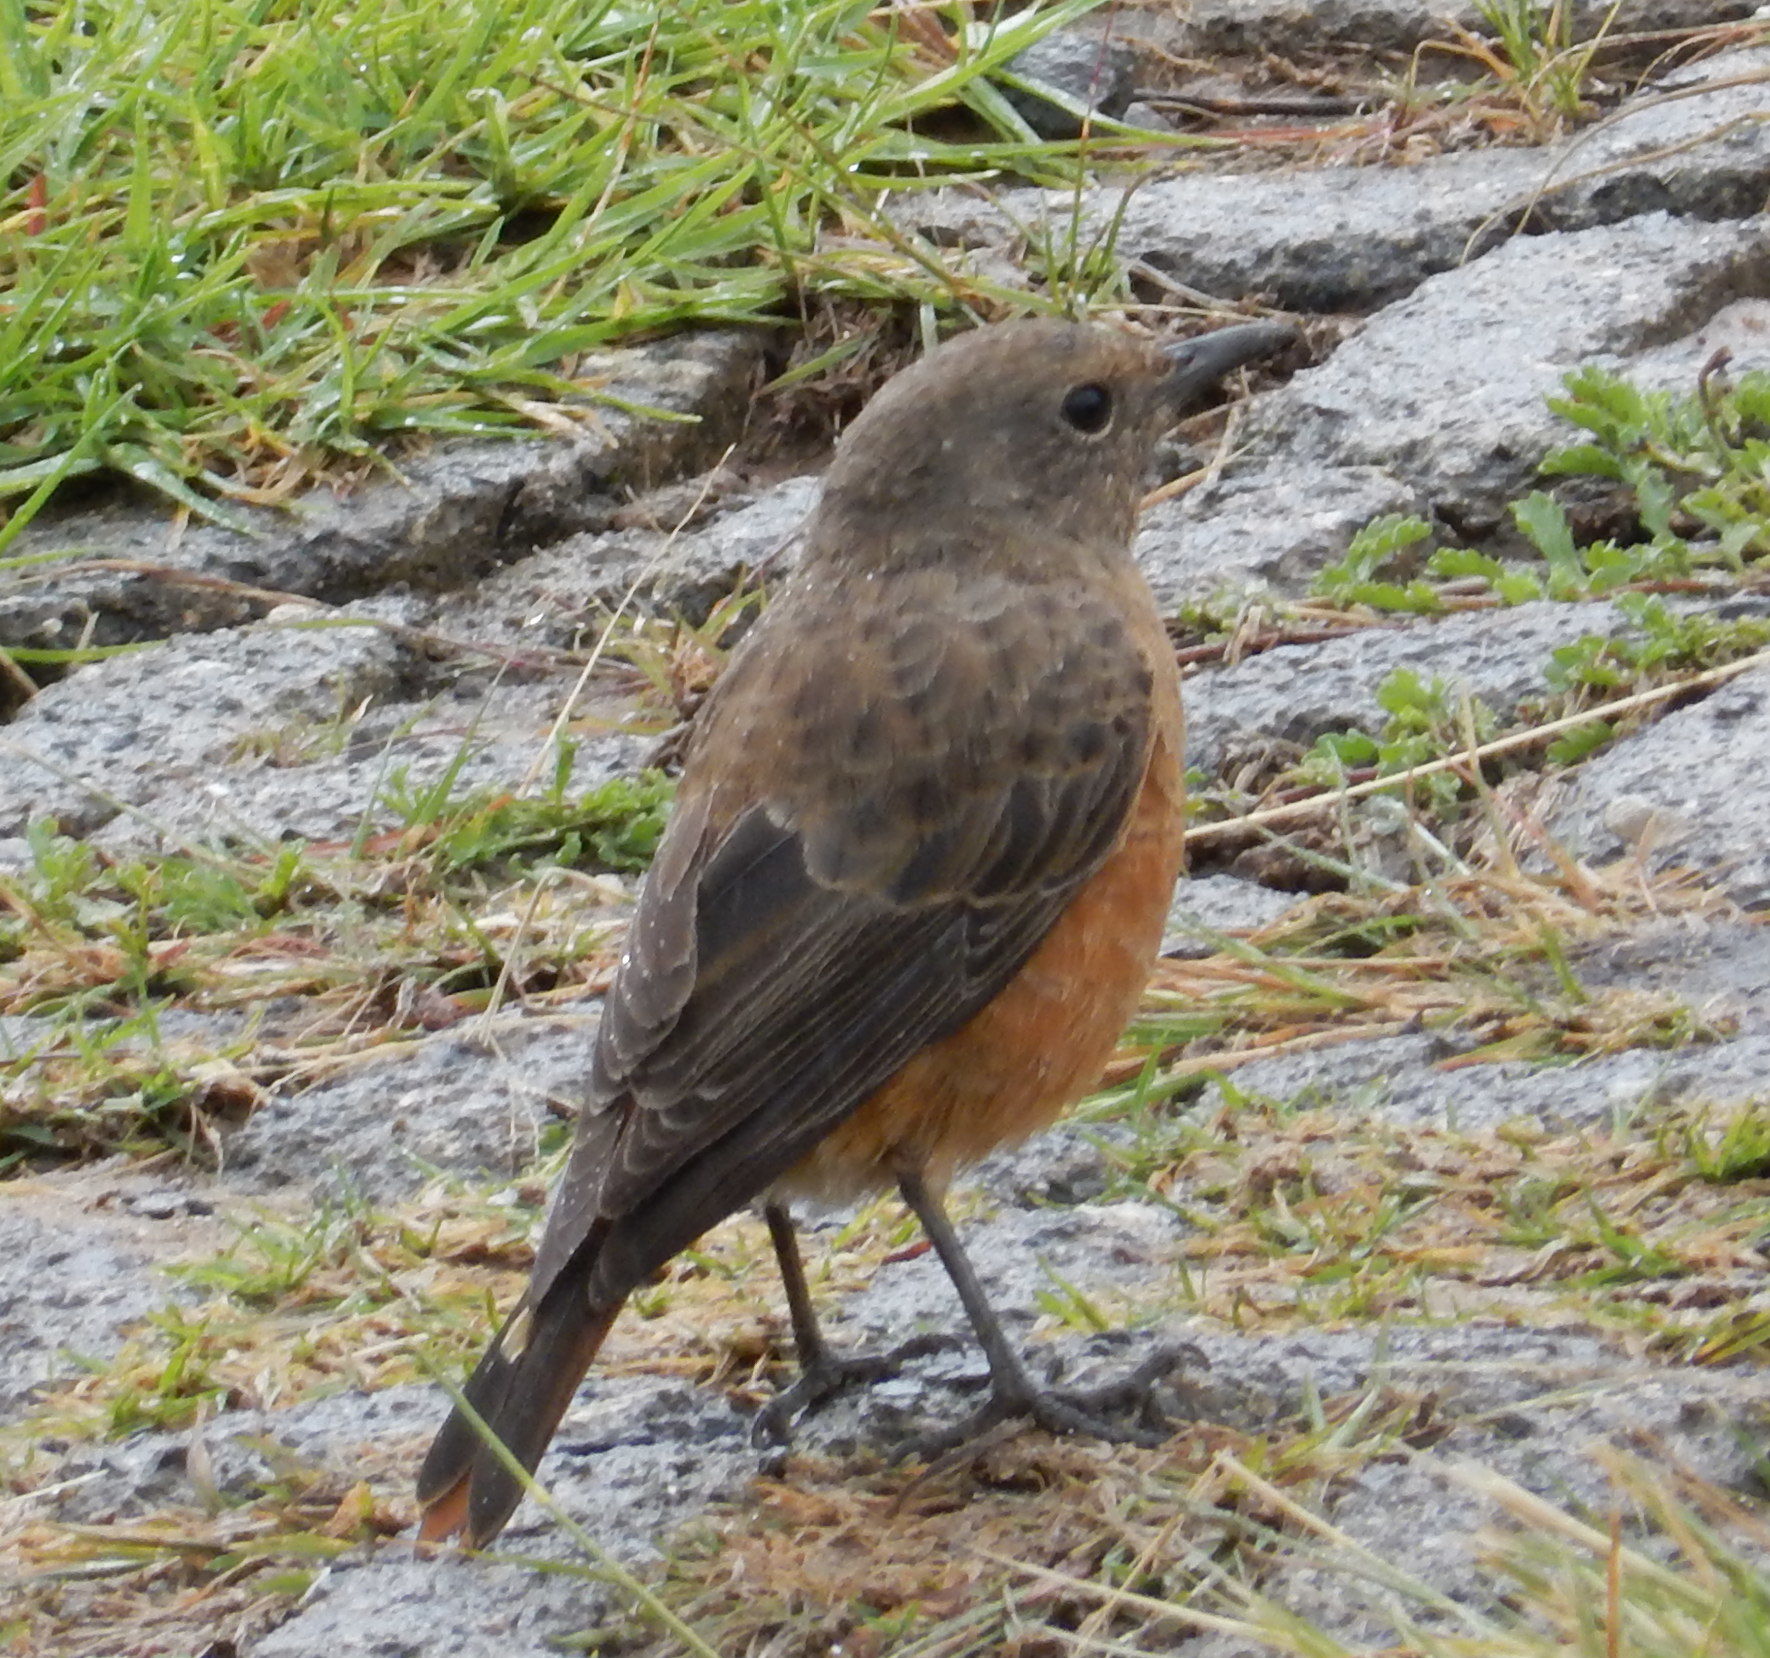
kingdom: Animalia
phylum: Chordata
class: Aves
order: Passeriformes
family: Muscicapidae
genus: Monticola
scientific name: Monticola rupestris
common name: Cape rock thrush
